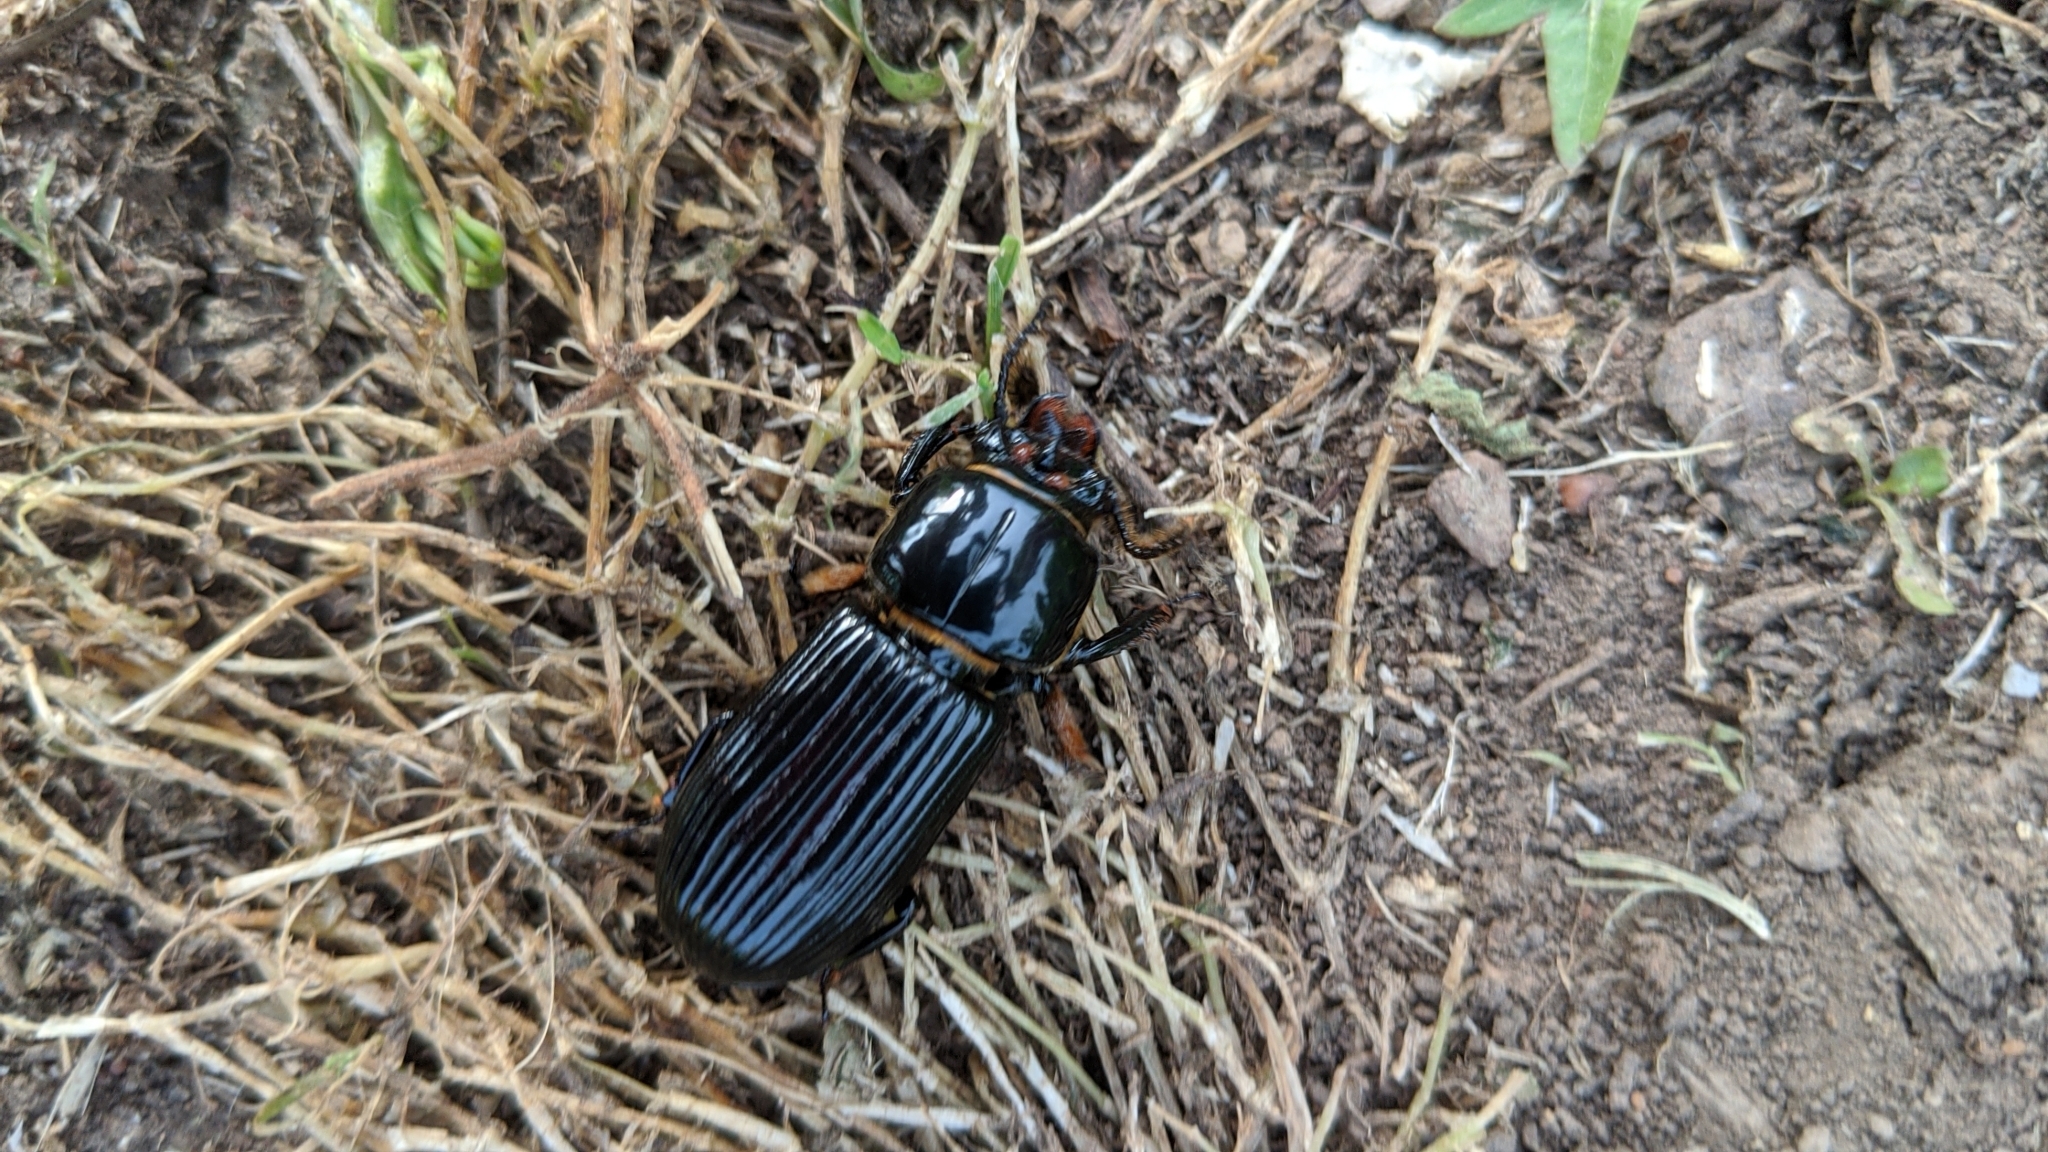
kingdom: Animalia
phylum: Arthropoda
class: Insecta
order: Coleoptera
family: Passalidae
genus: Odontotaenius
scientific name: Odontotaenius disjunctus
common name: Patent leather beetle
